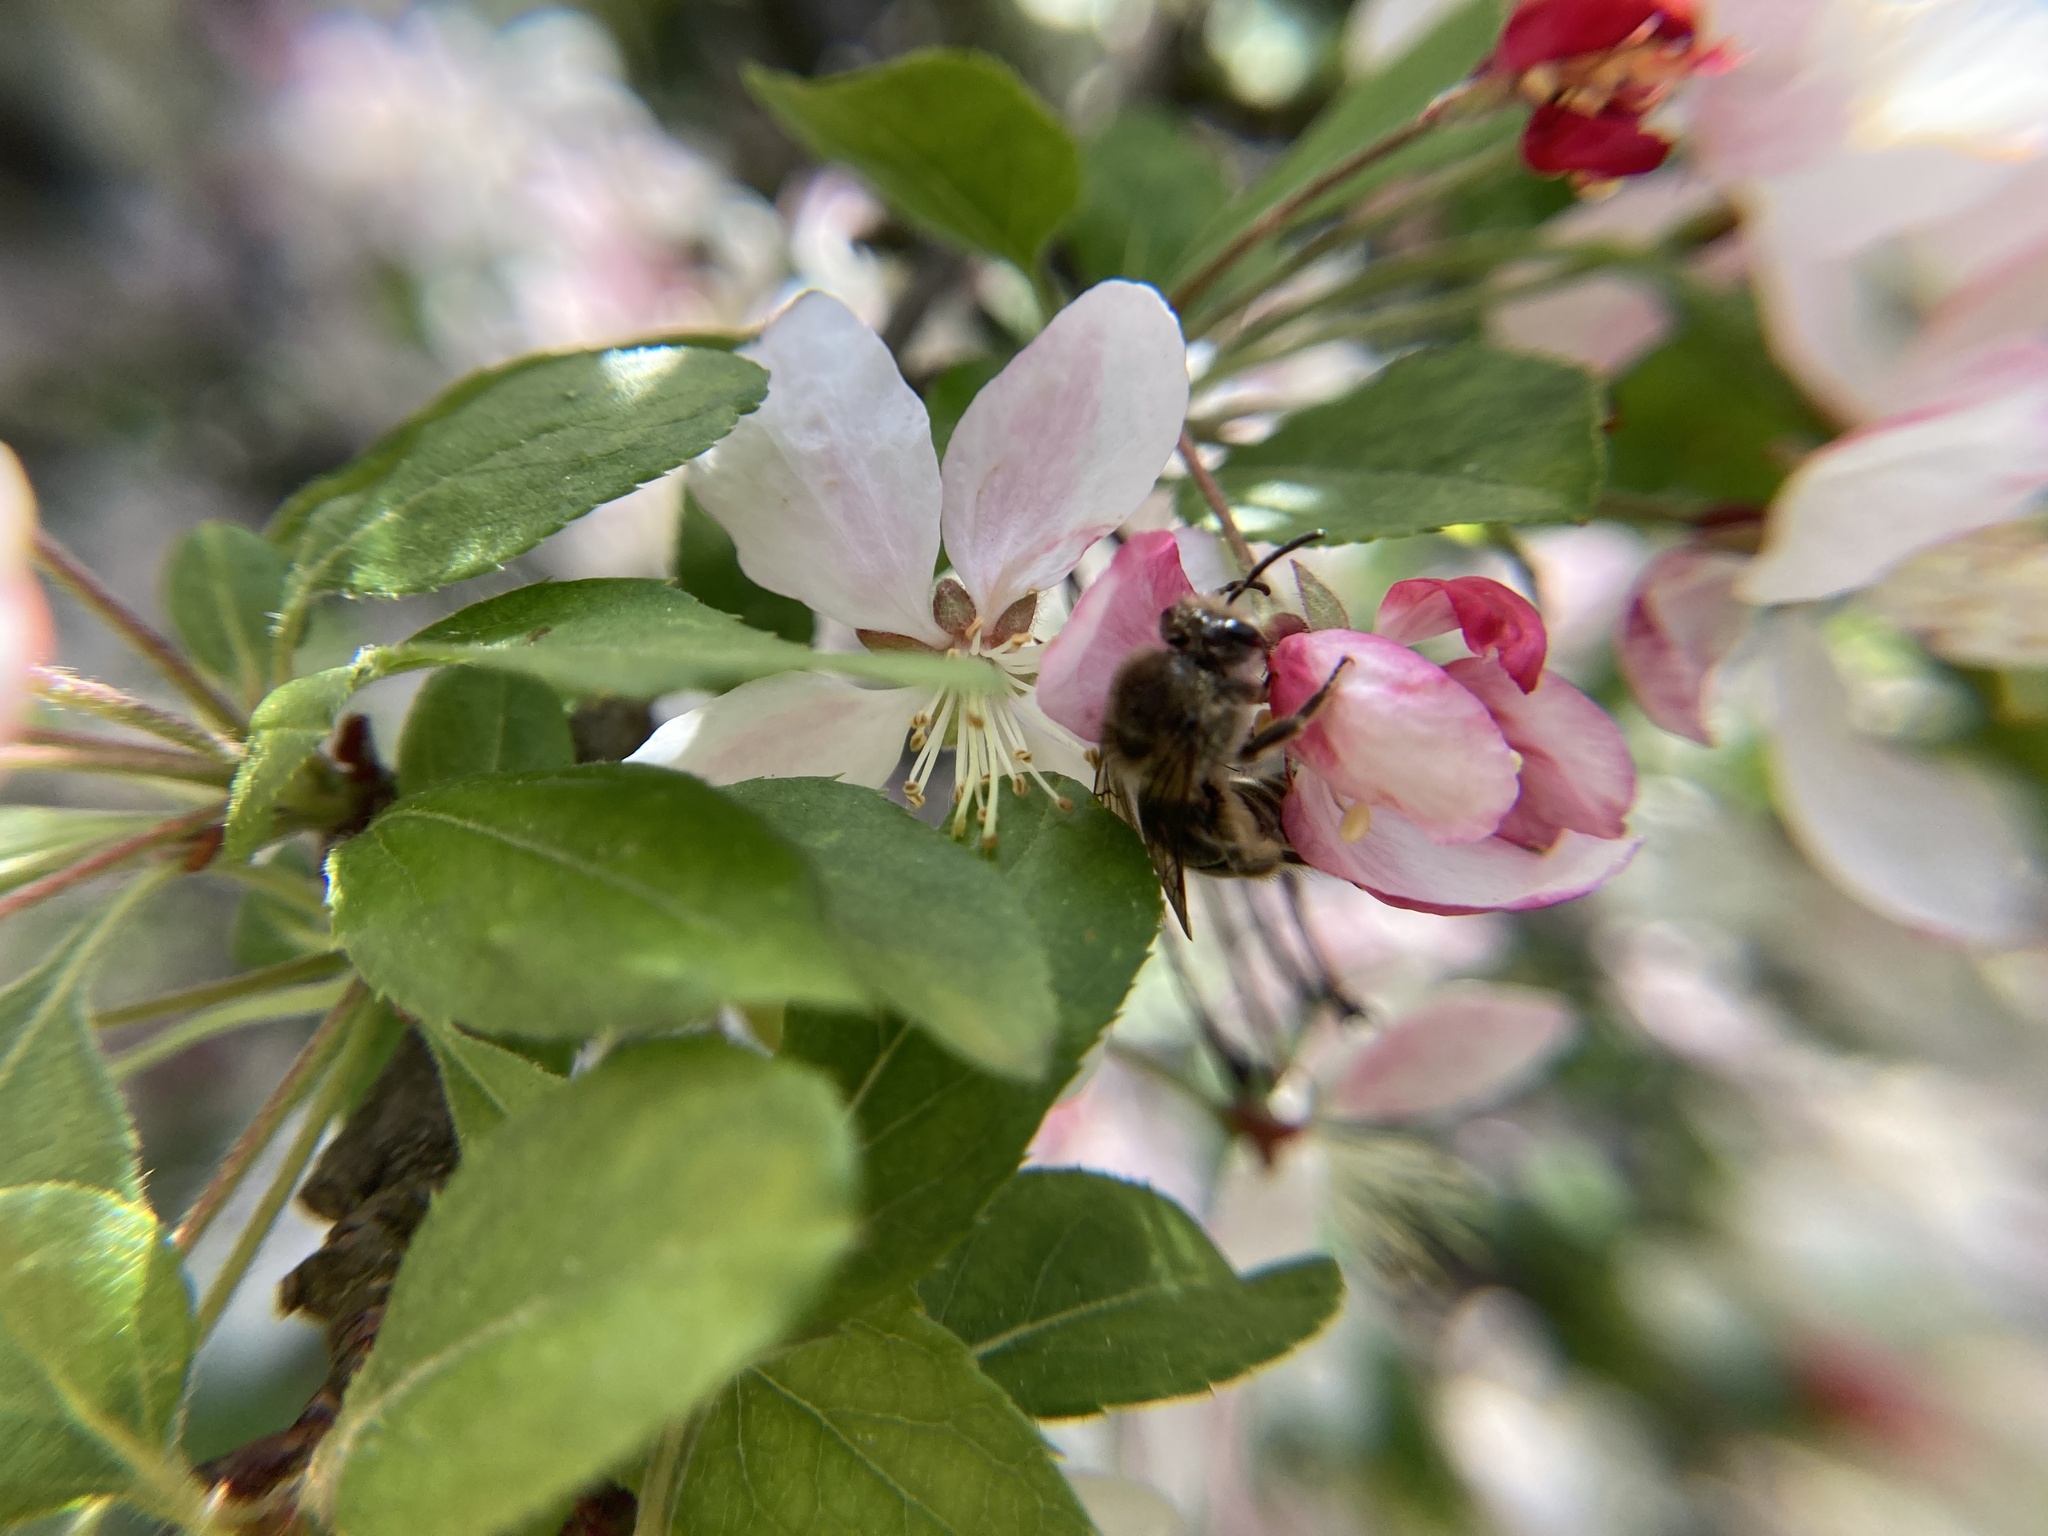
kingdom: Animalia
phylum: Arthropoda
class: Insecta
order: Hymenoptera
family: Colletidae
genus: Colletes
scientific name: Colletes inaequalis
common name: Unequal cellophane bee
